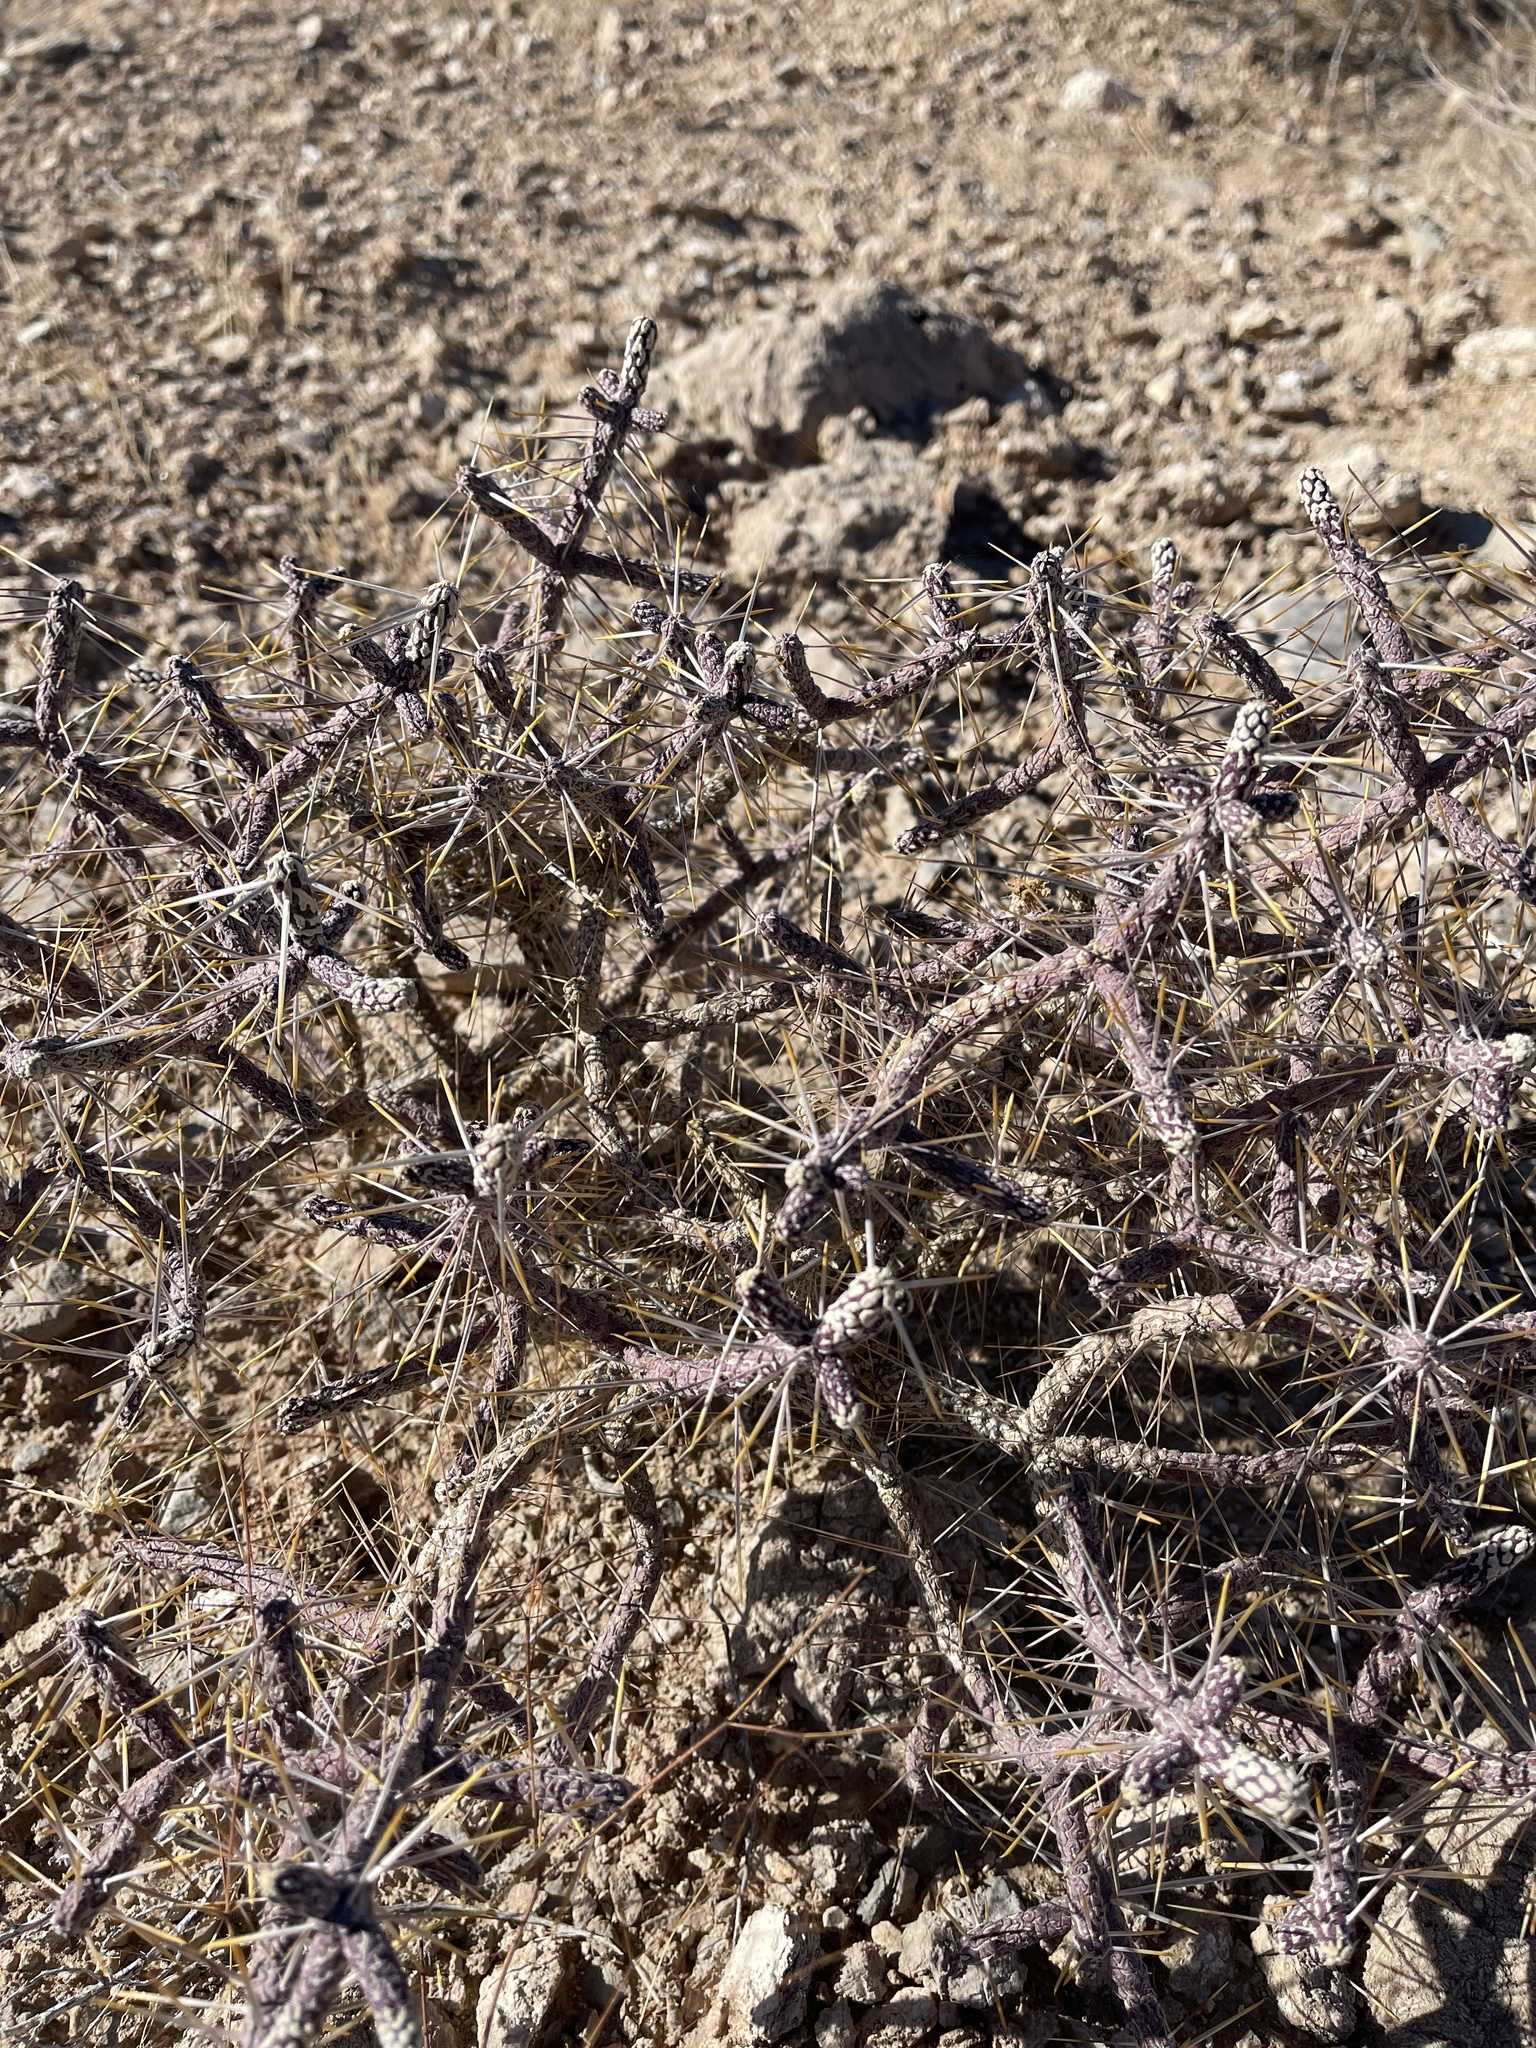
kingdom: Plantae
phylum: Tracheophyta
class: Magnoliopsida
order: Caryophyllales
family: Cactaceae
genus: Cylindropuntia
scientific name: Cylindropuntia ramosissima
